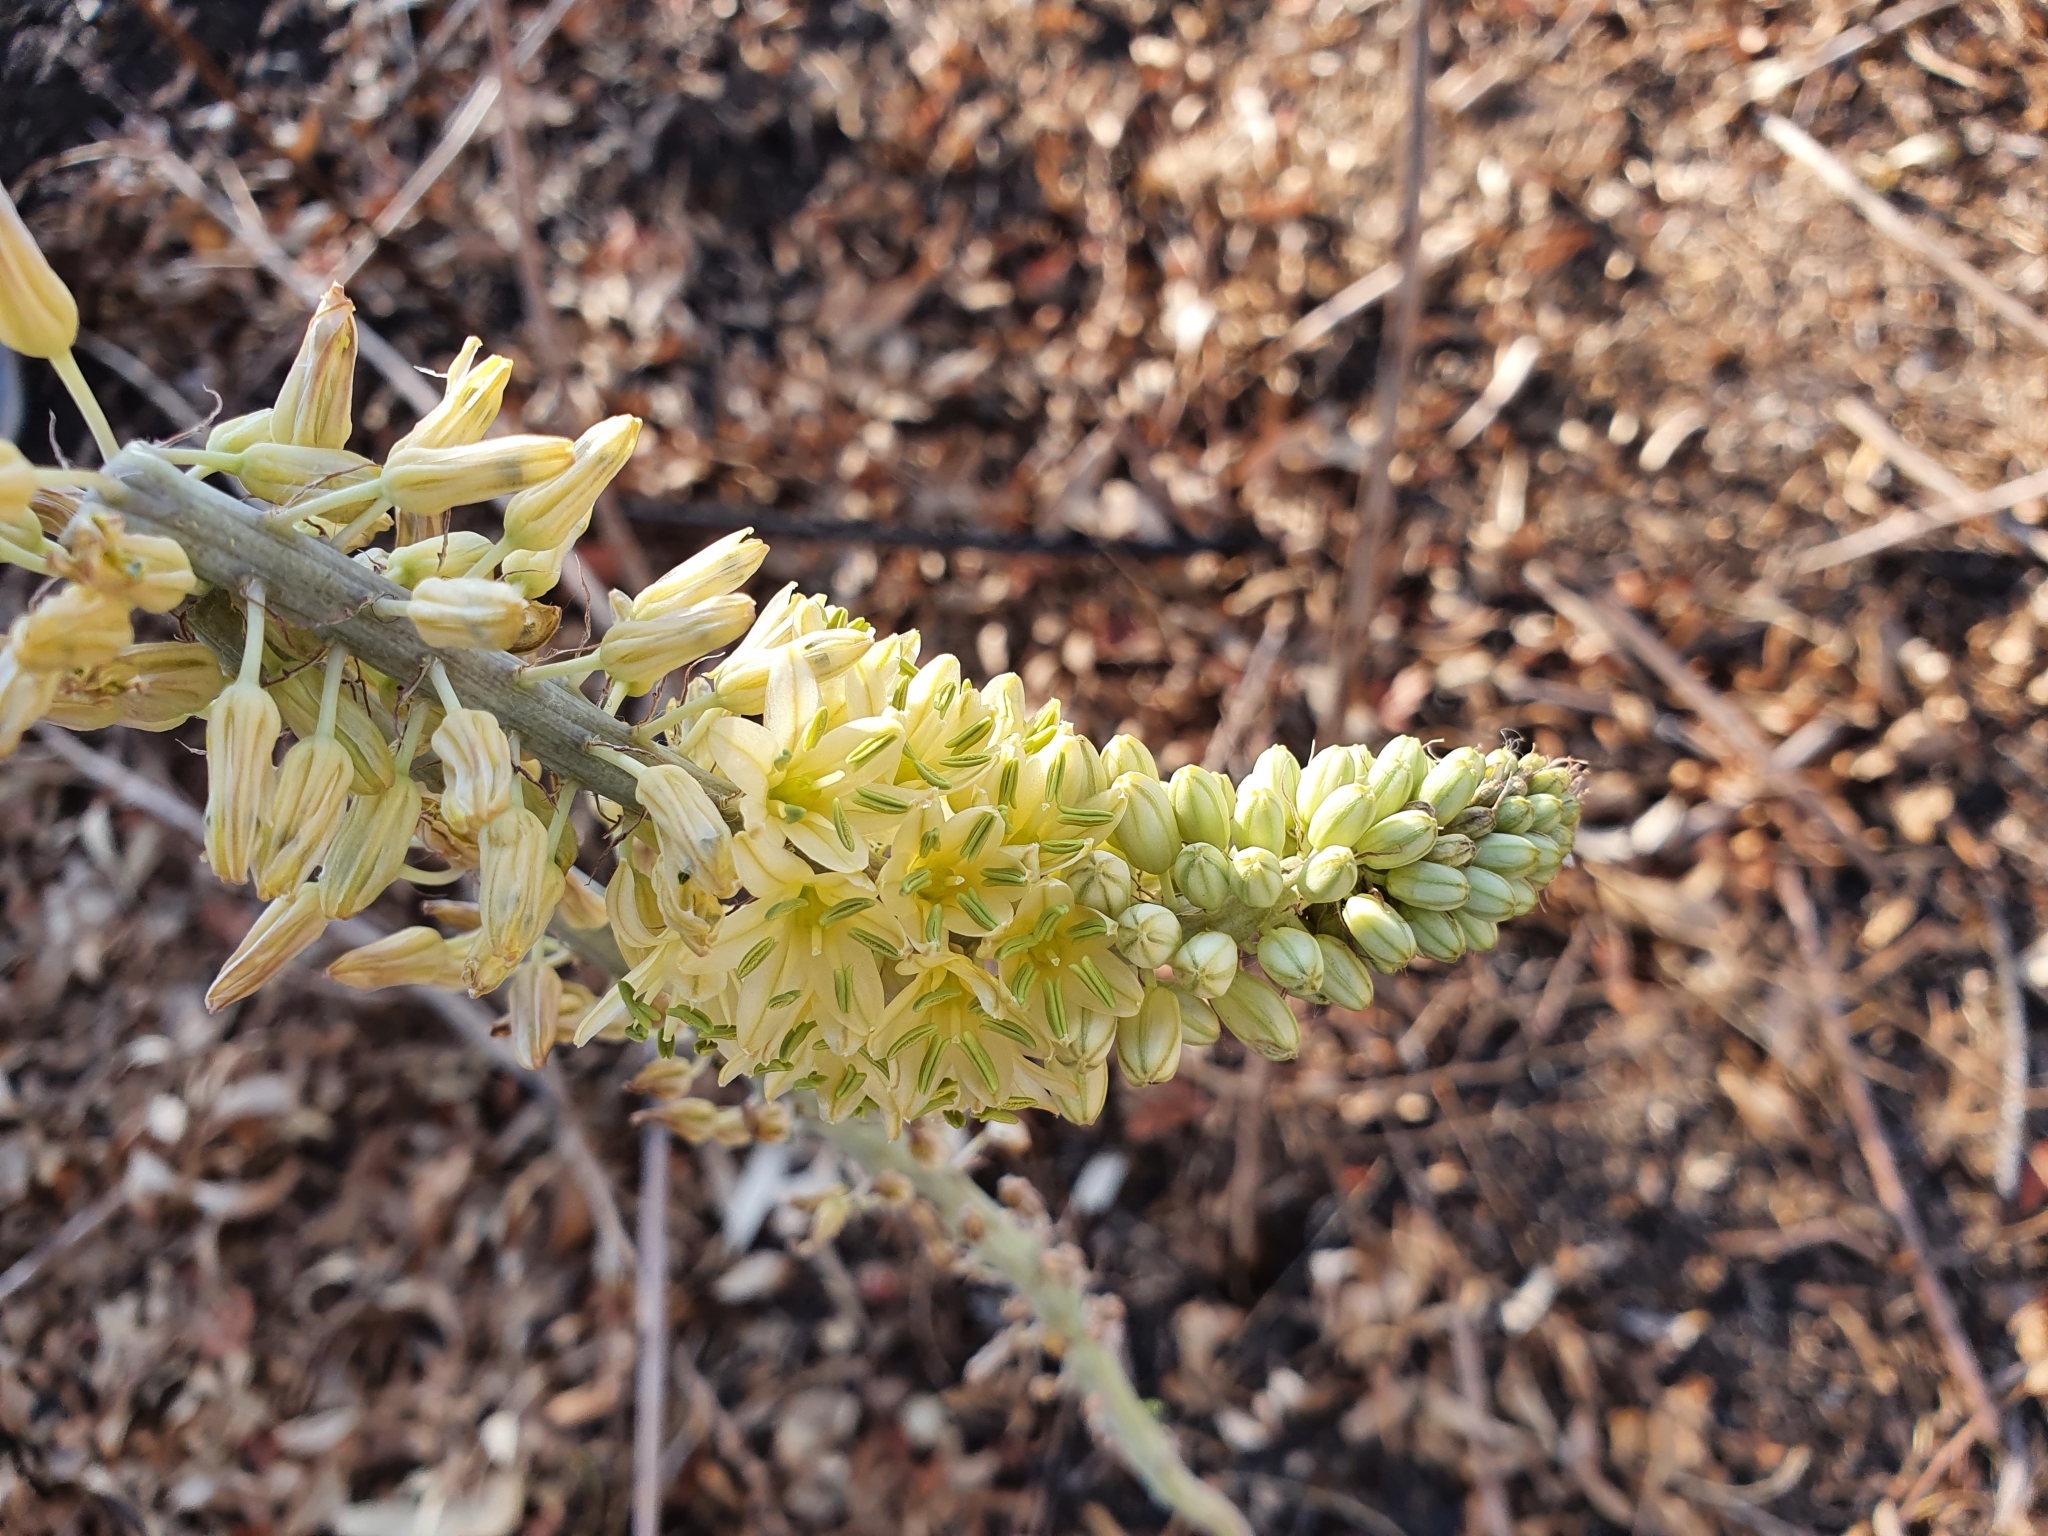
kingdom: Plantae
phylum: Tracheophyta
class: Liliopsida
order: Asparagales
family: Asparagaceae
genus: Drimia
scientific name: Drimia anthericoides
